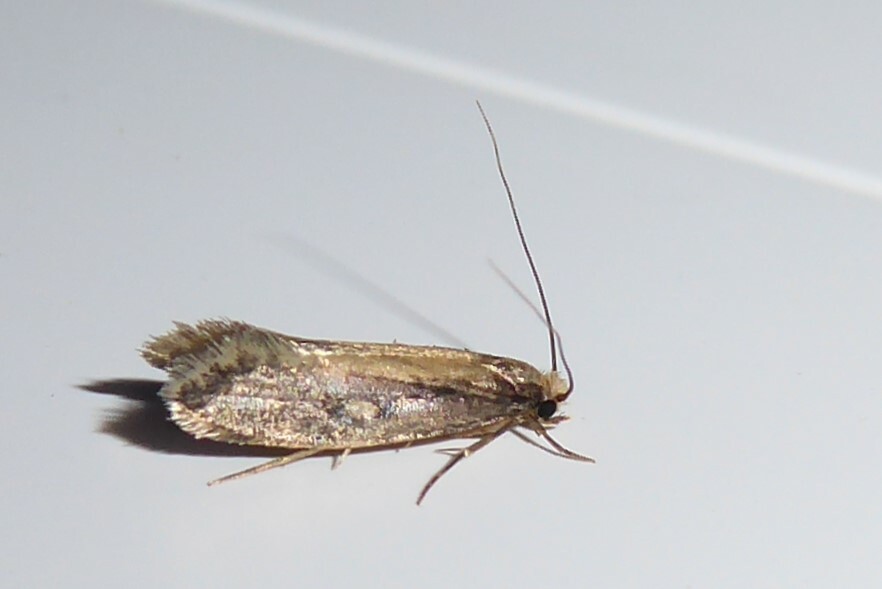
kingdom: Animalia
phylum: Arthropoda
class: Insecta
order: Lepidoptera
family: Tineidae
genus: Monopis
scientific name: Monopis crocicapitella
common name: Moth
